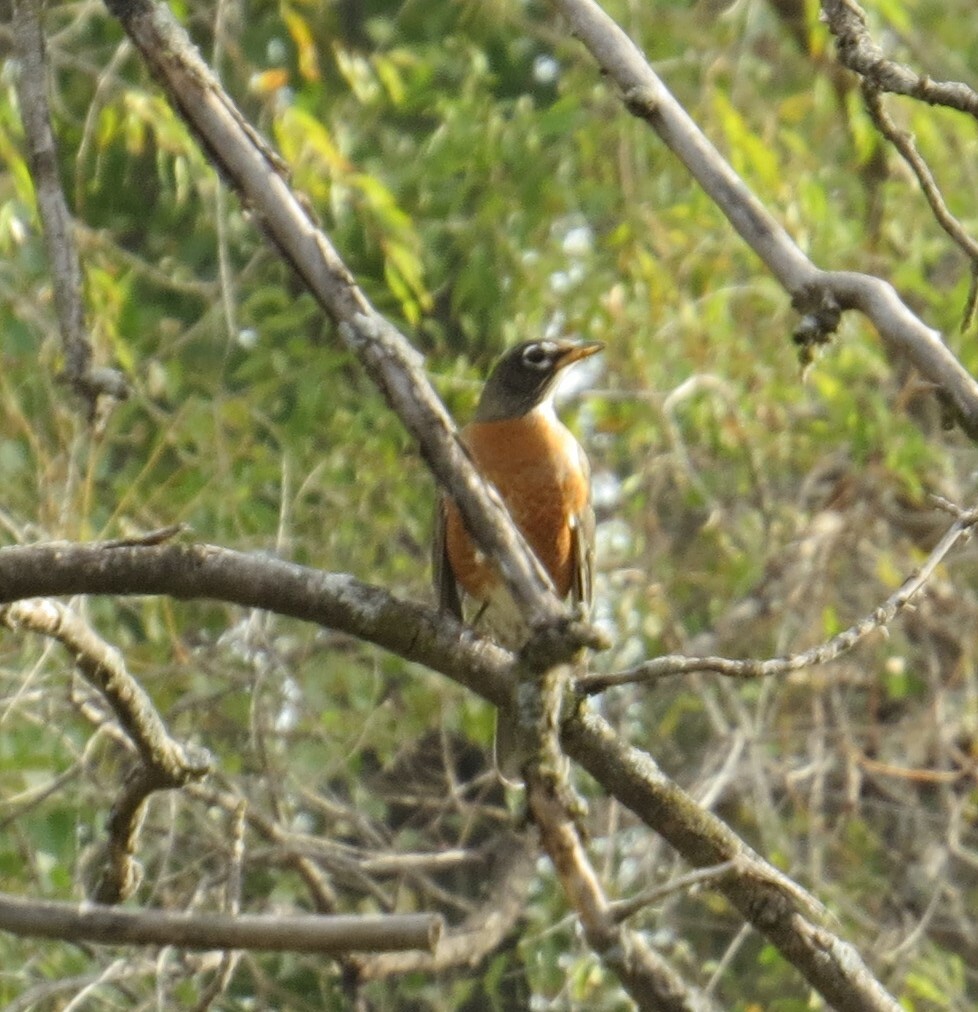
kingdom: Animalia
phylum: Chordata
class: Aves
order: Passeriformes
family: Turdidae
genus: Turdus
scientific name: Turdus migratorius
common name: American robin
